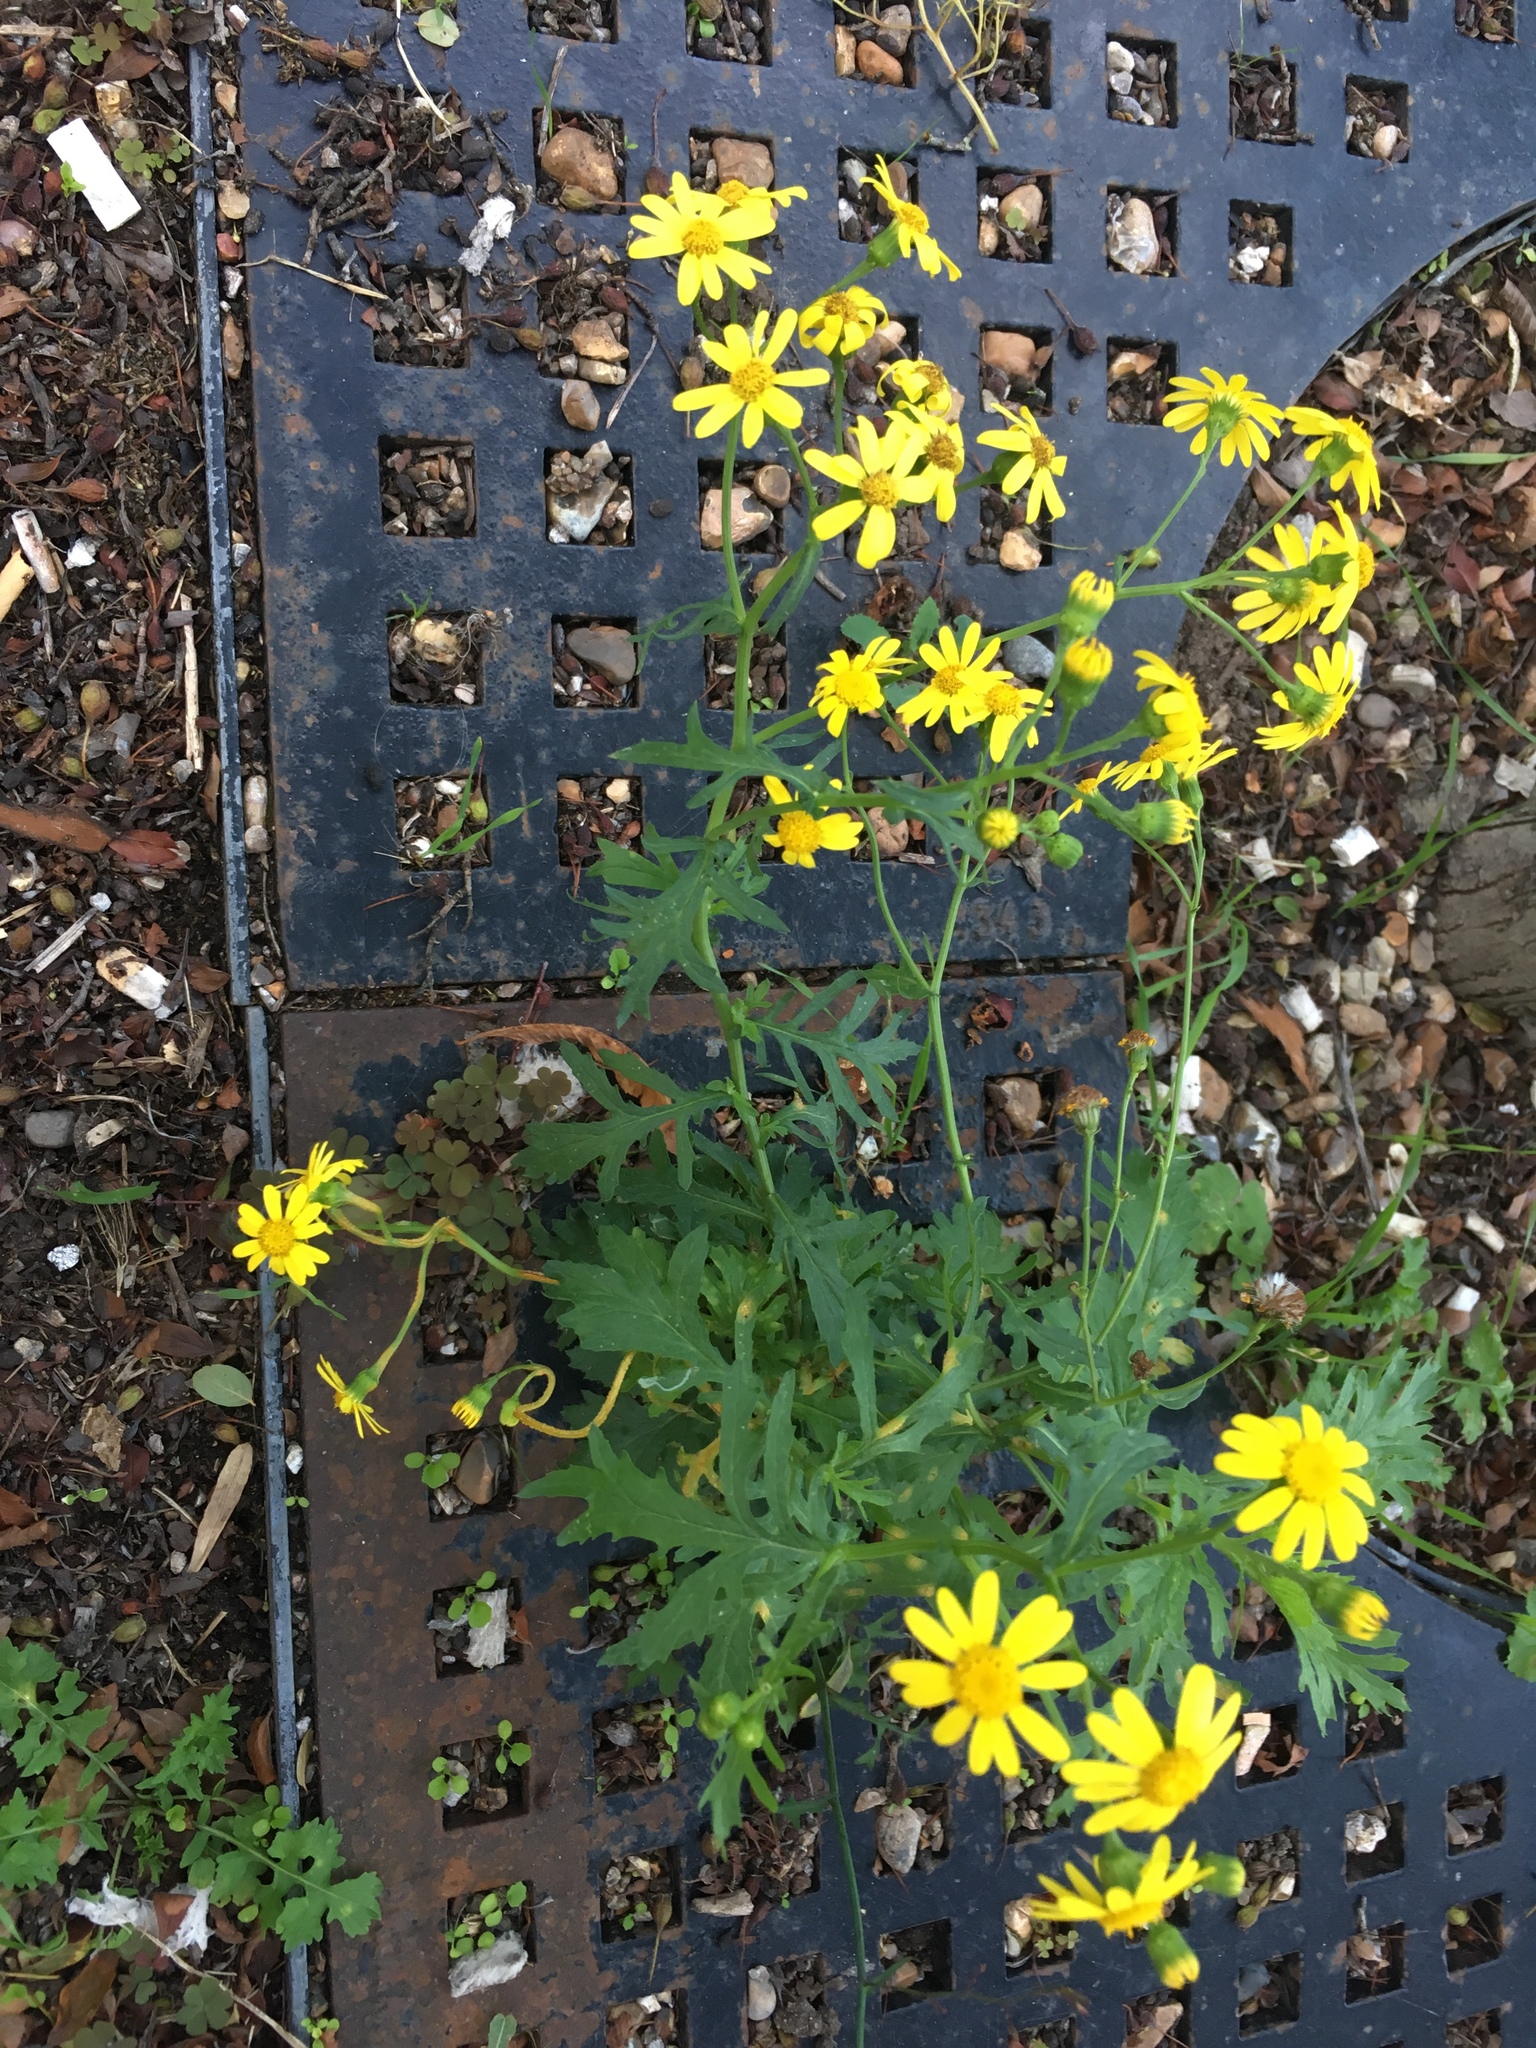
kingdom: Plantae
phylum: Tracheophyta
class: Magnoliopsida
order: Asterales
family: Asteraceae
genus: Senecio
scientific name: Senecio squalidus
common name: Oxford ragwort
